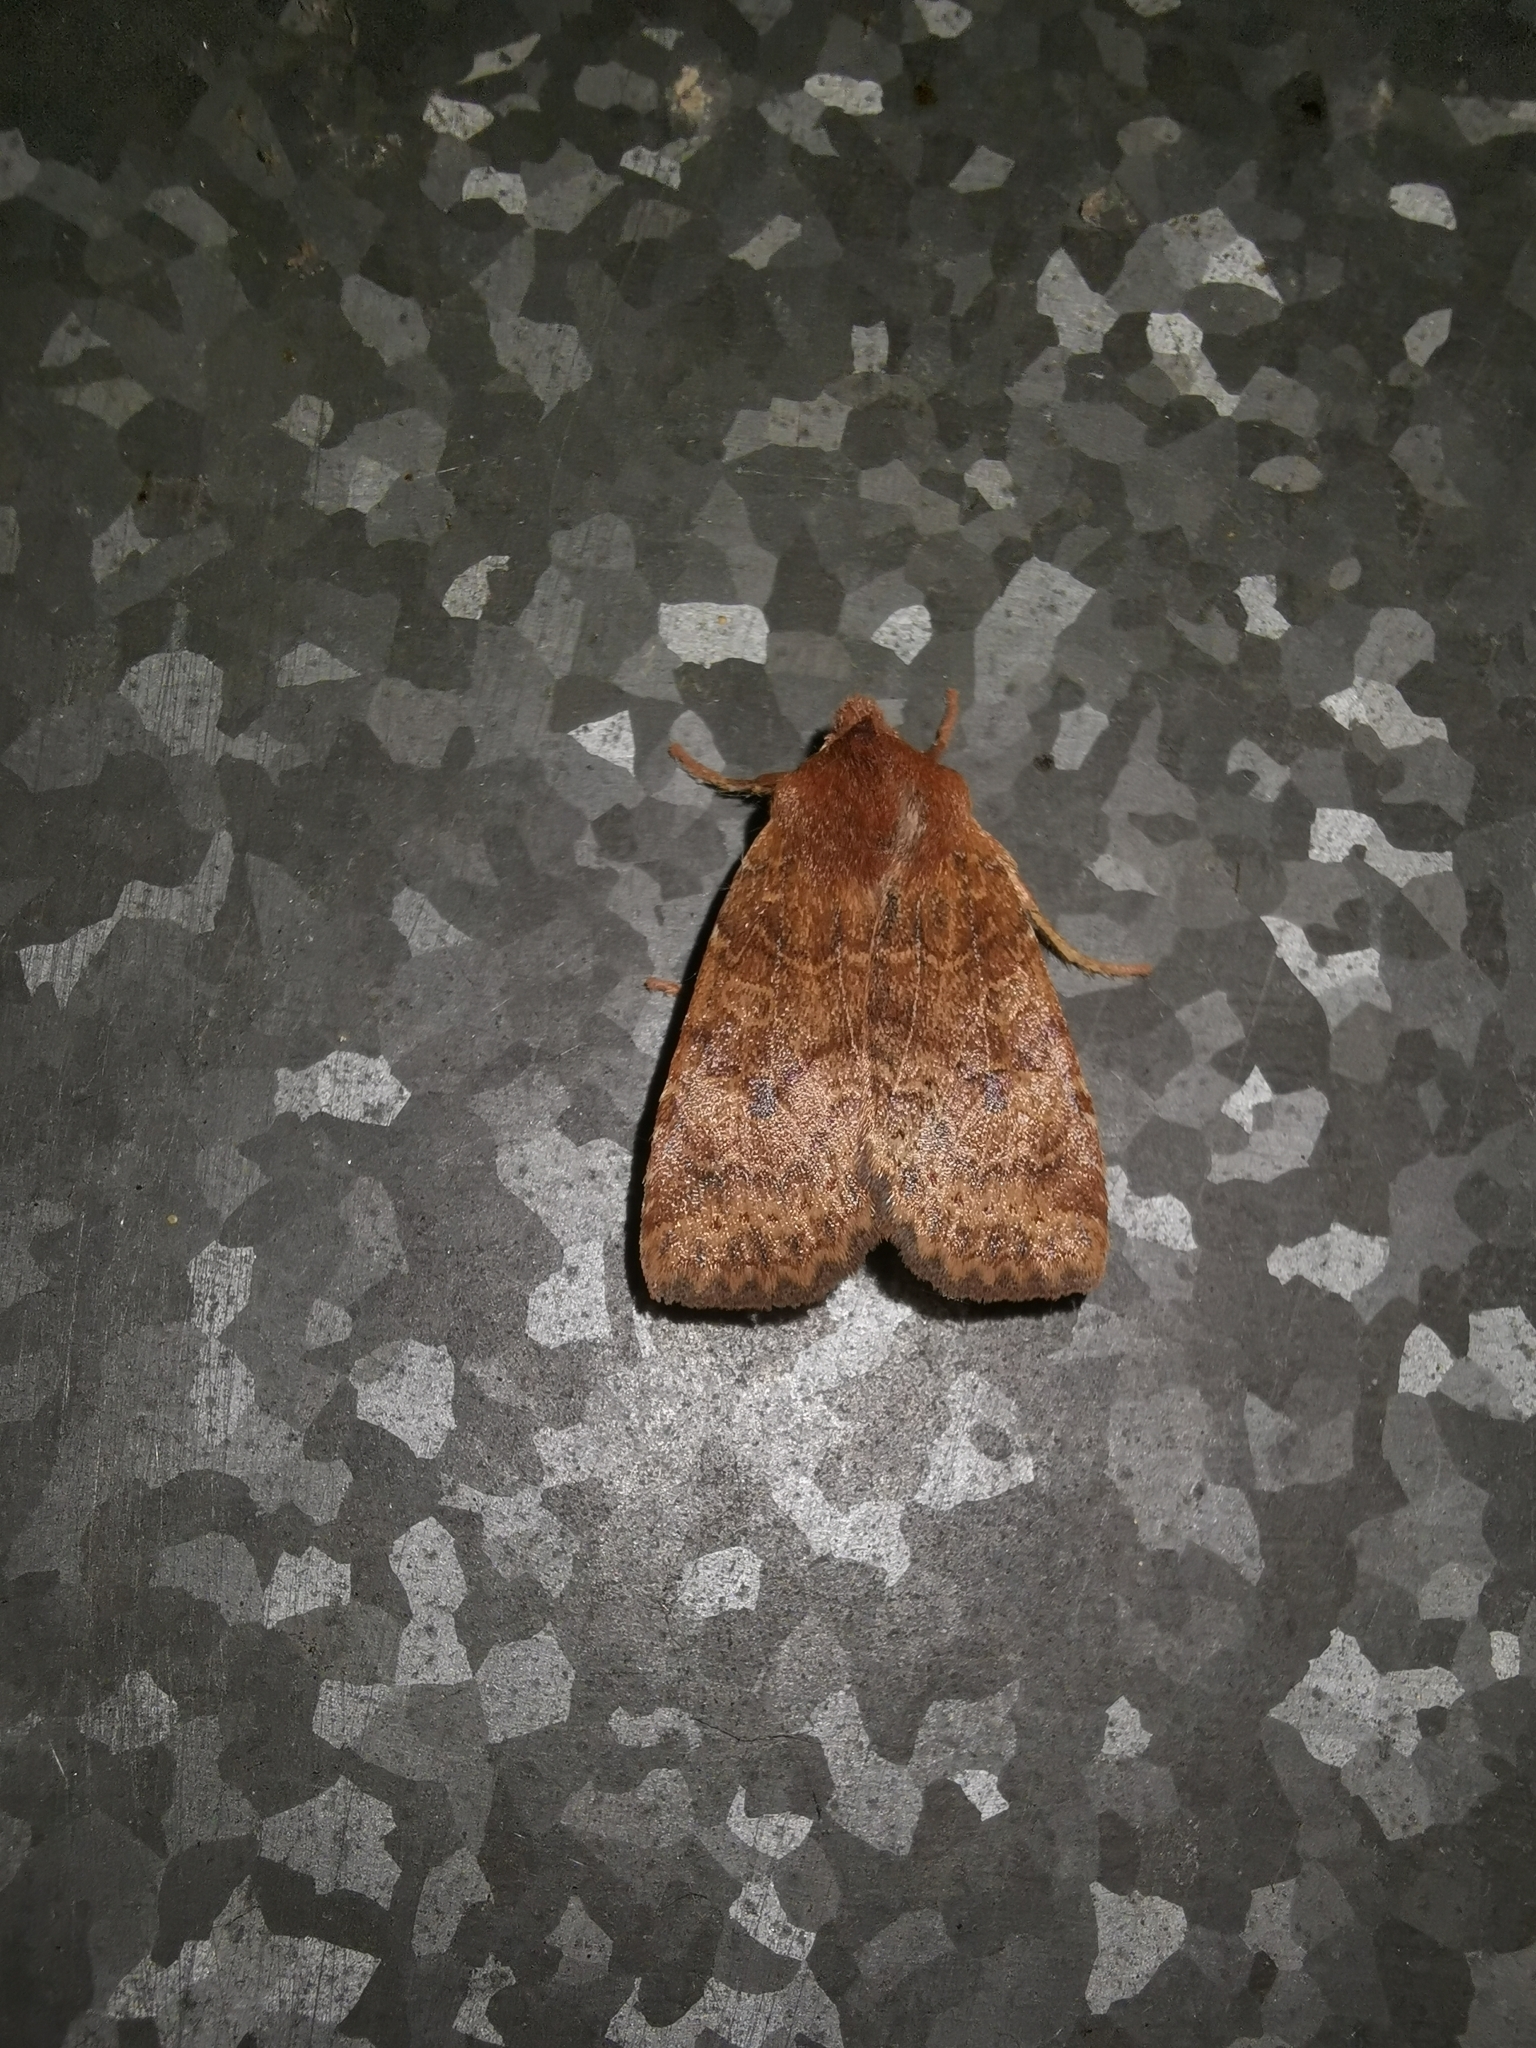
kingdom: Animalia
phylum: Arthropoda
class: Insecta
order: Lepidoptera
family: Noctuidae
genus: Conistra
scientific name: Conistra vaccinii
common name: Chestnut
